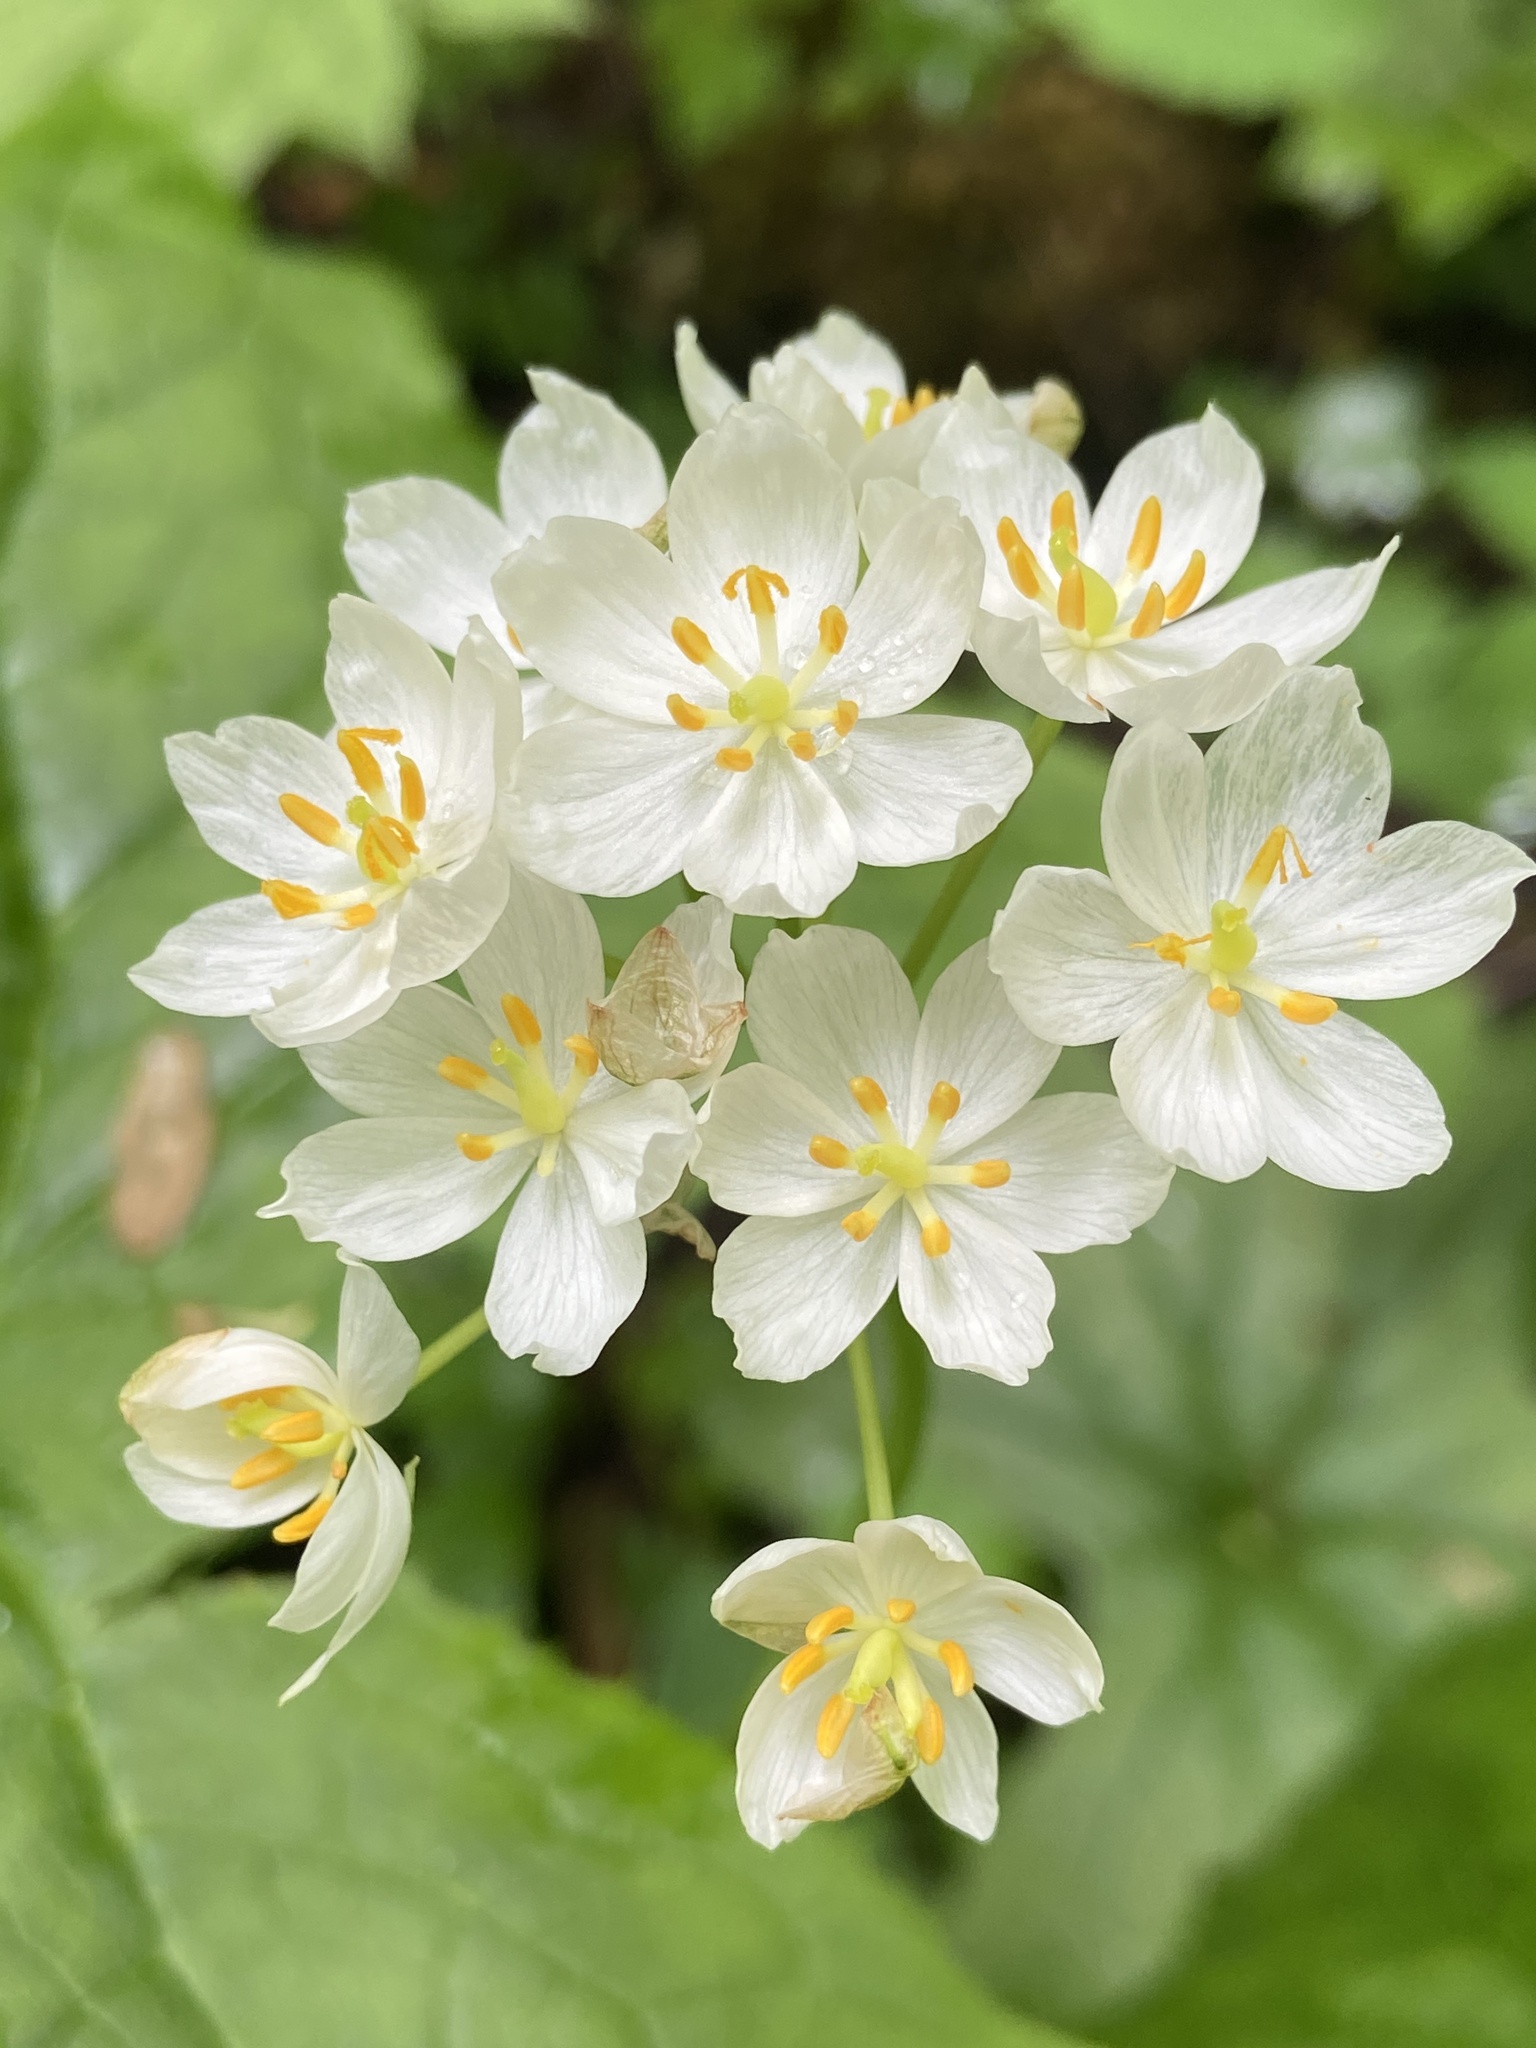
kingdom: Plantae
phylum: Tracheophyta
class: Magnoliopsida
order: Ranunculales
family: Berberidaceae
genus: Diphylleia
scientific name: Diphylleia cymosa
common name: Umbrella-leaf
